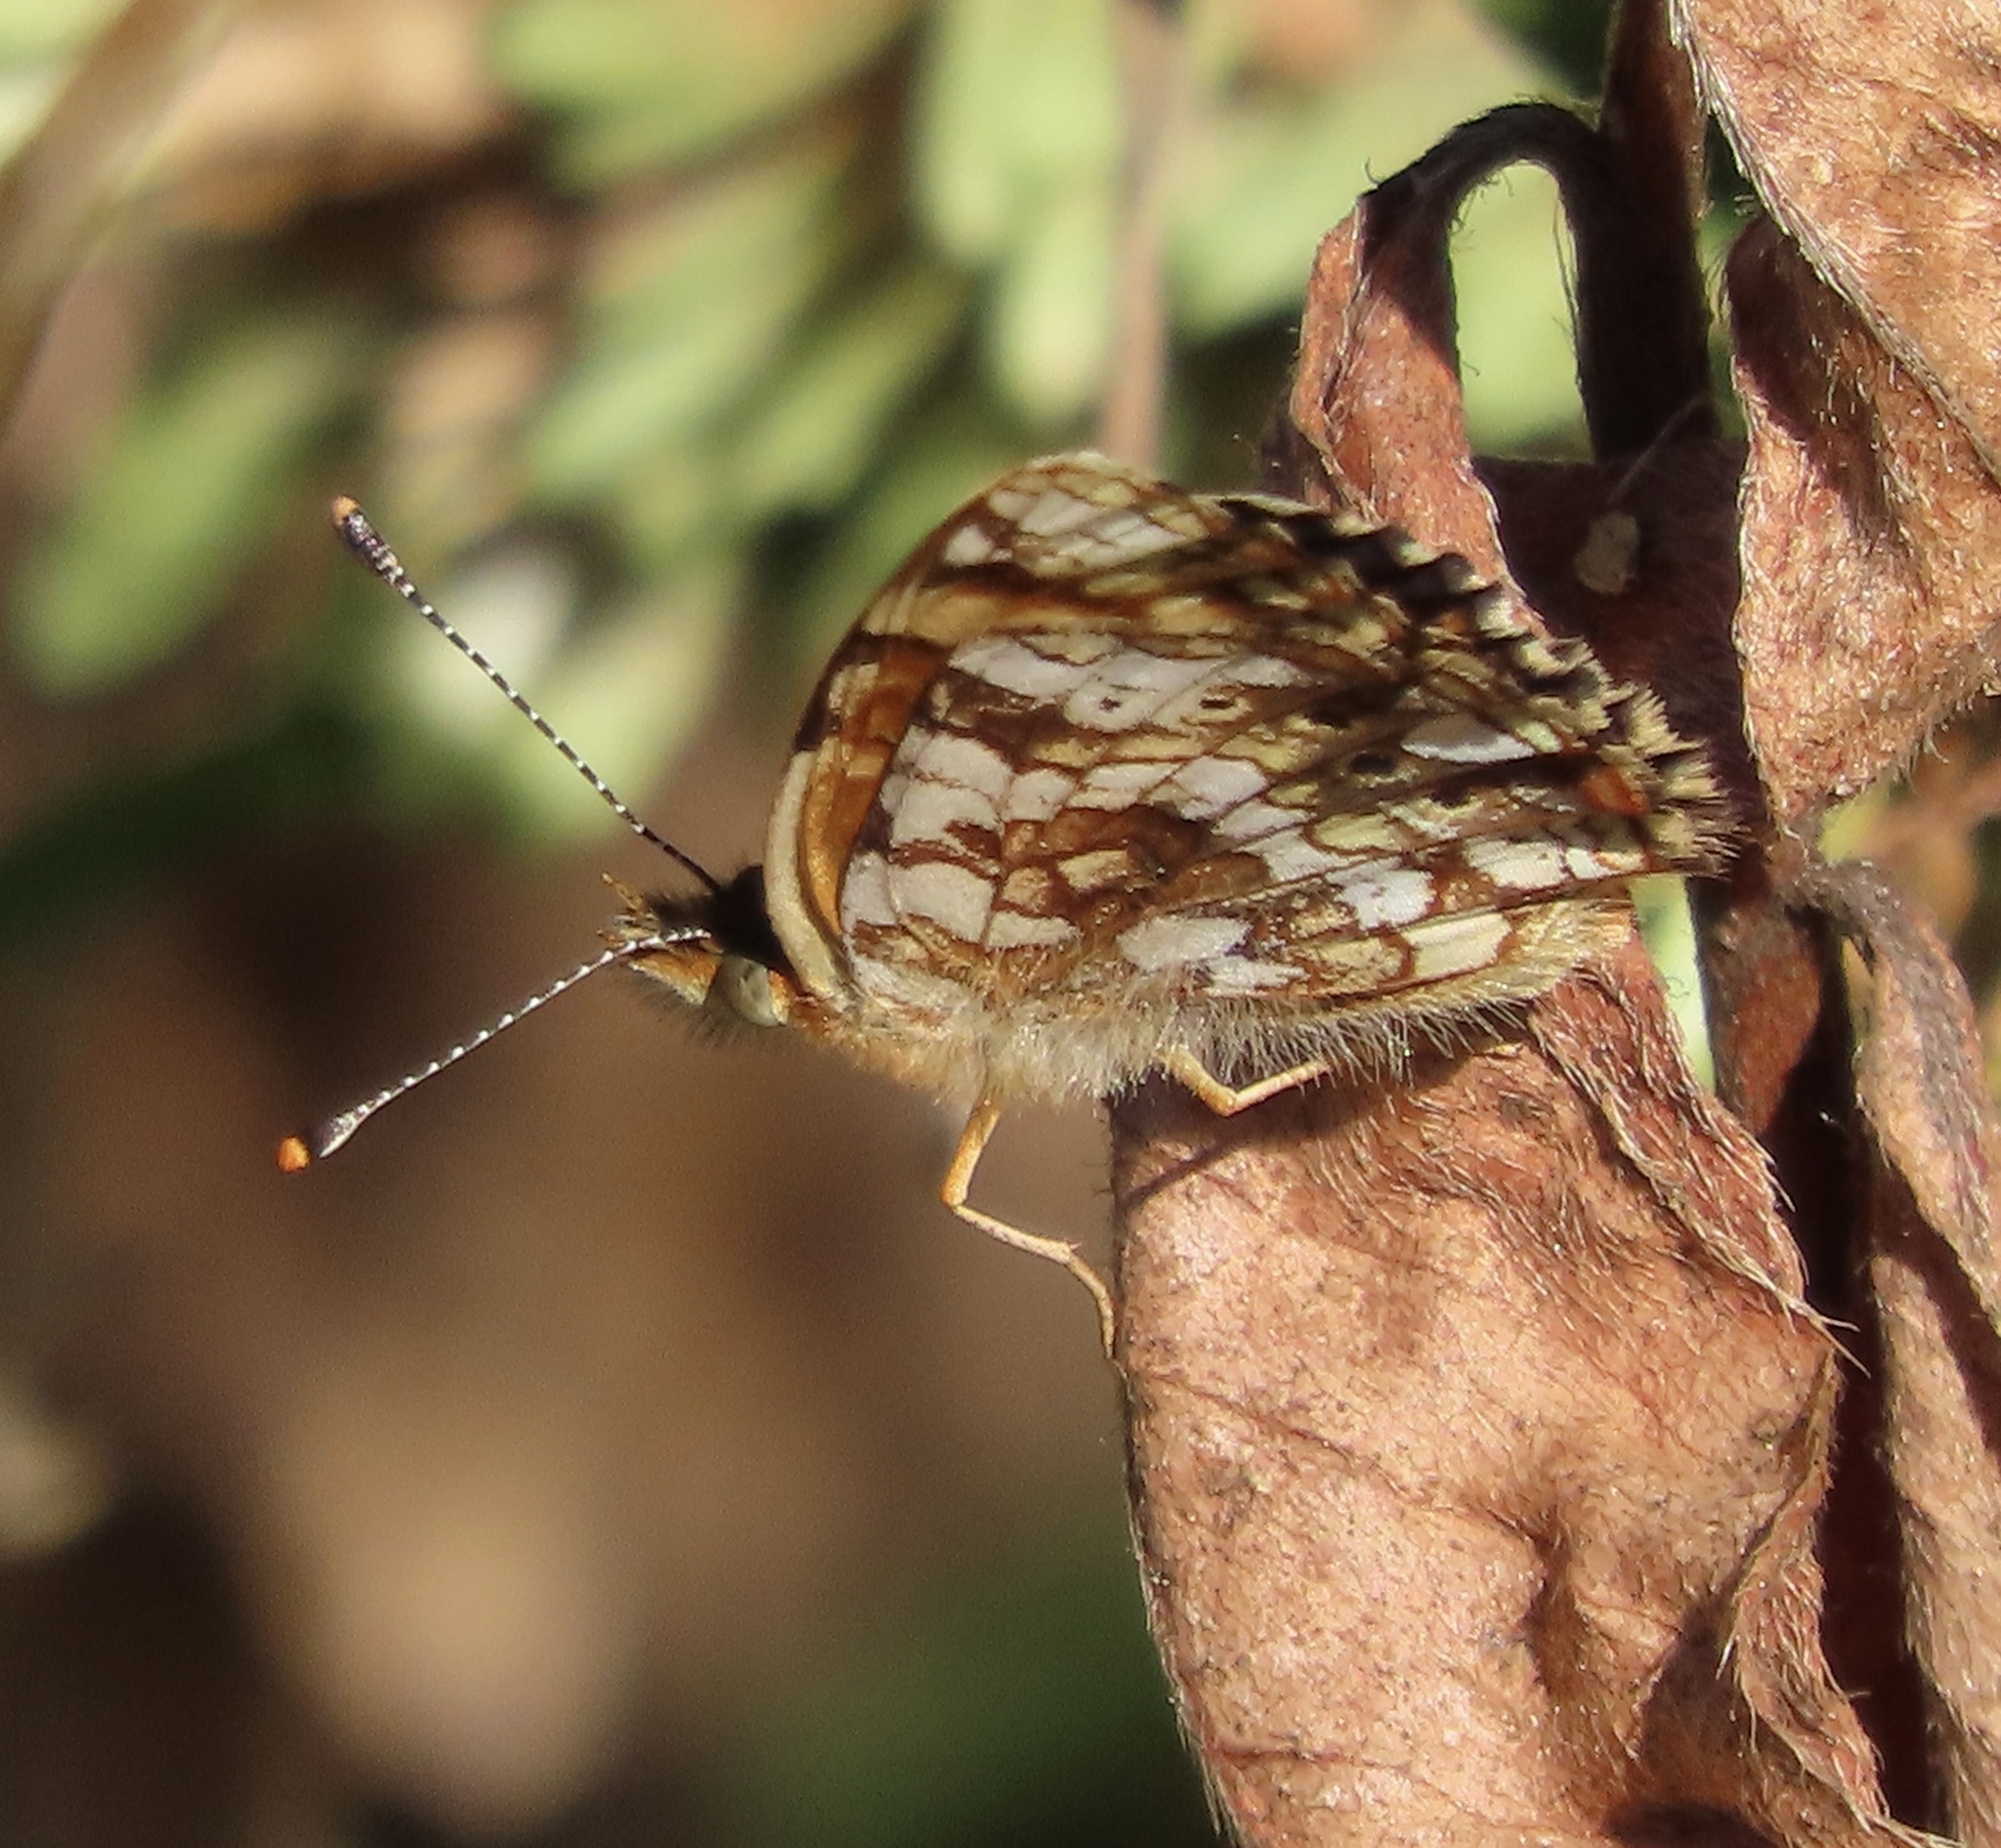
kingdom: Animalia
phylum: Arthropoda
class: Insecta
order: Lepidoptera
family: Nymphalidae
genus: Eresia
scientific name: Eresia aveyrona
